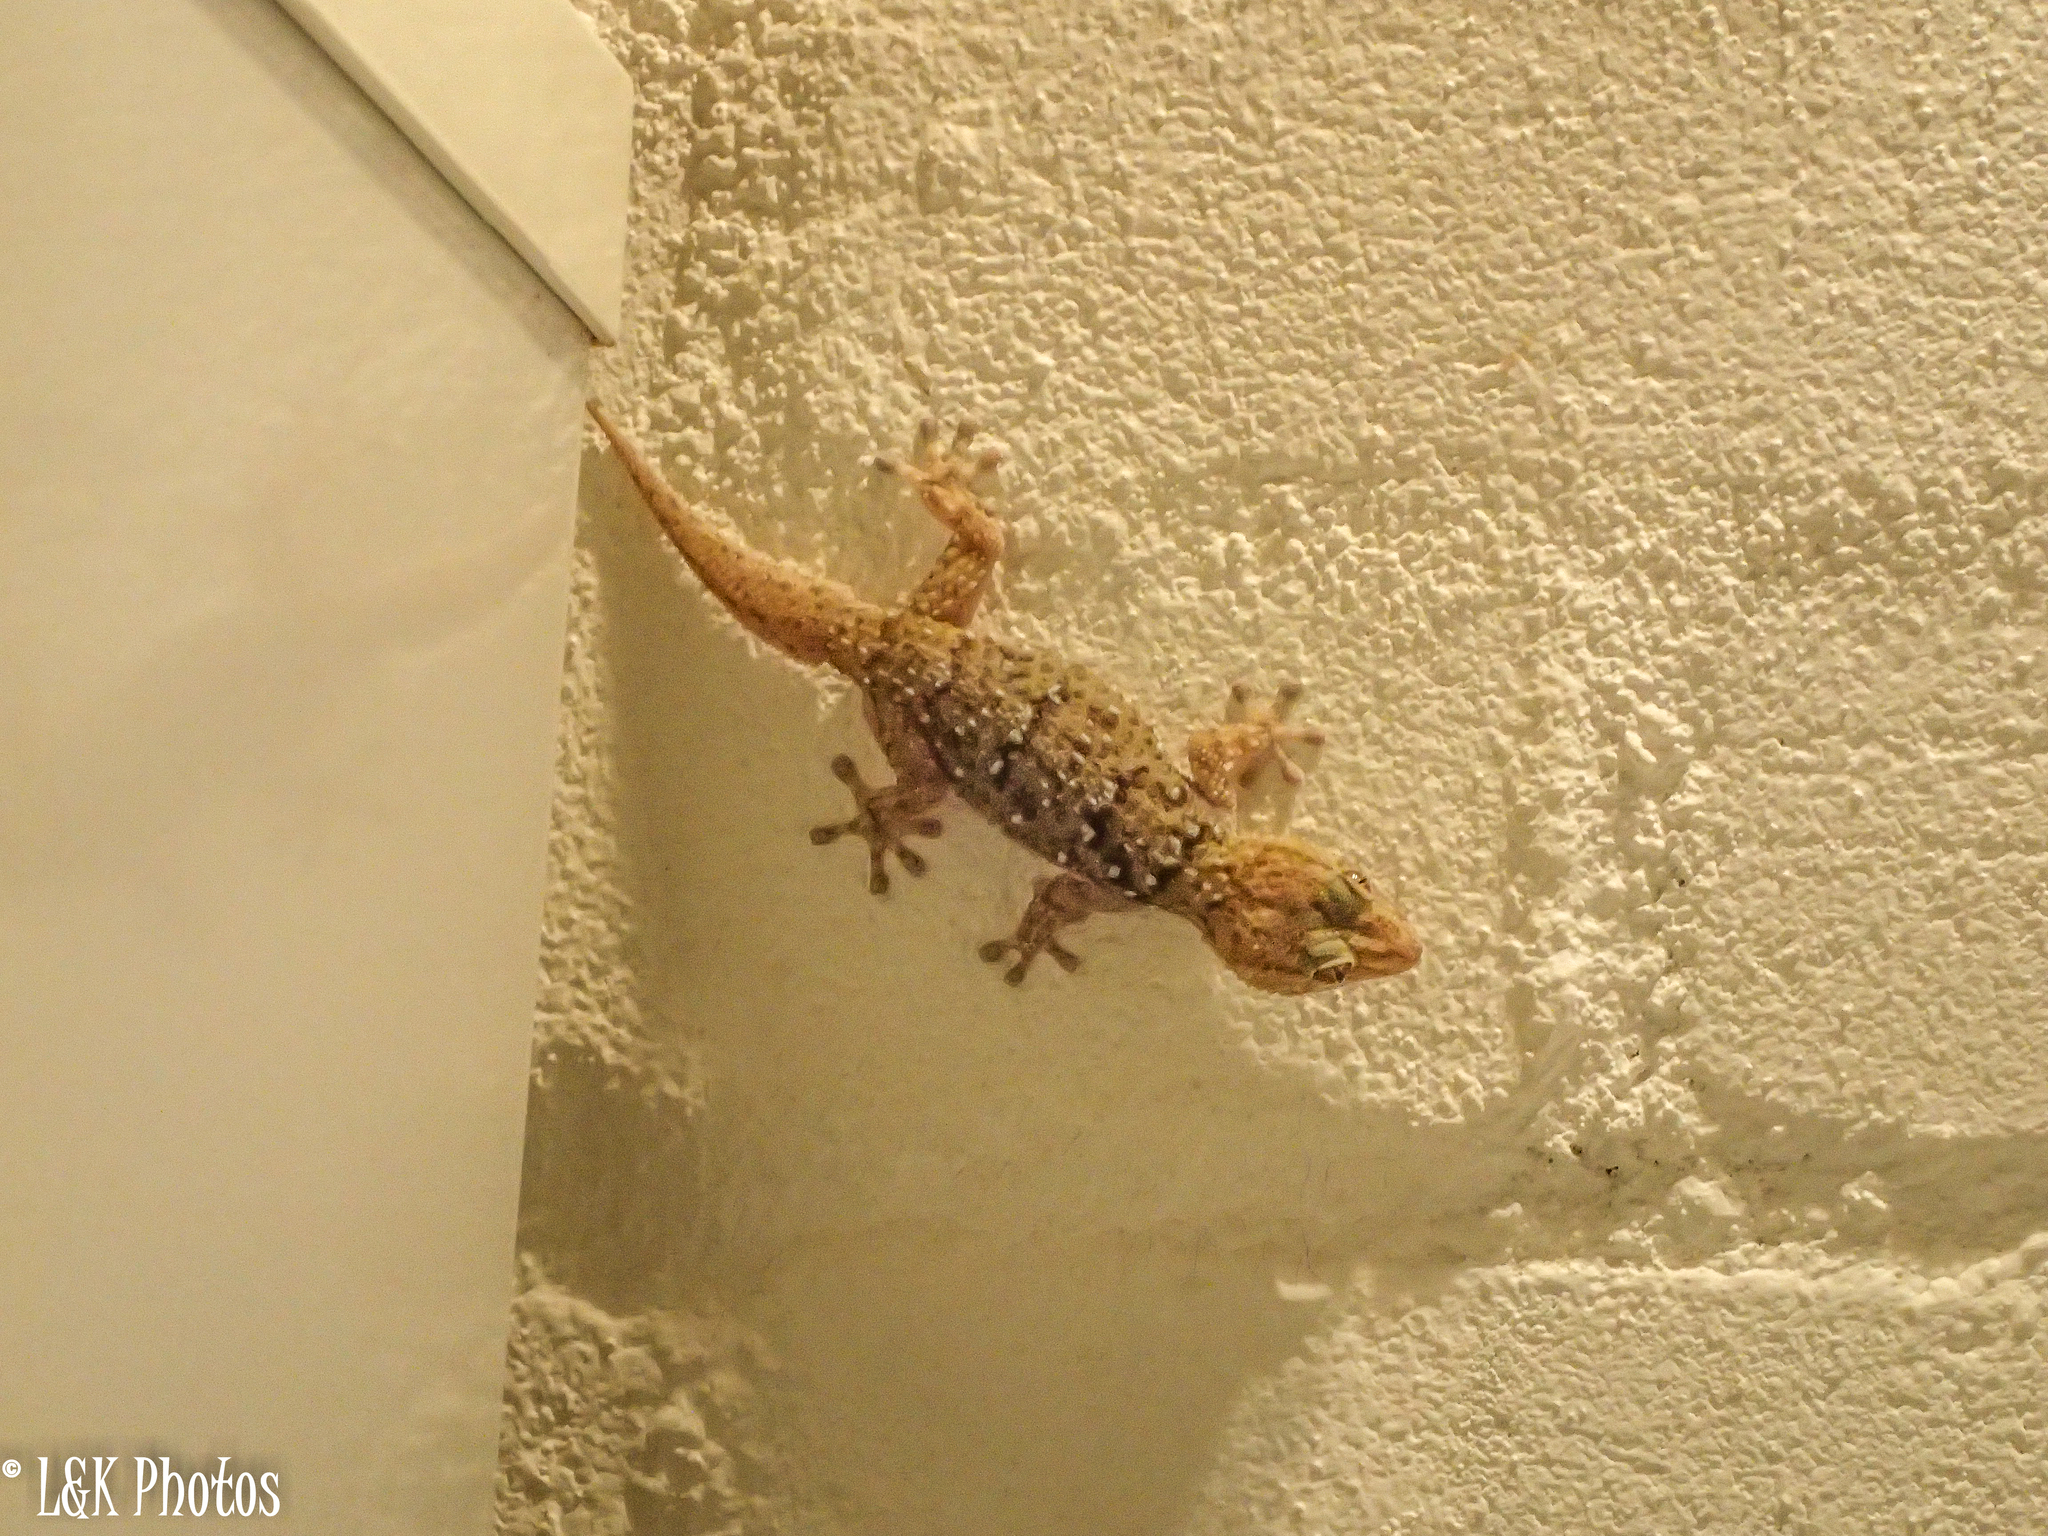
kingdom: Animalia
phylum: Chordata
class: Squamata
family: Gekkonidae
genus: Chondrodactylus
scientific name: Chondrodactylus bibronii
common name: Bibron's gecko
